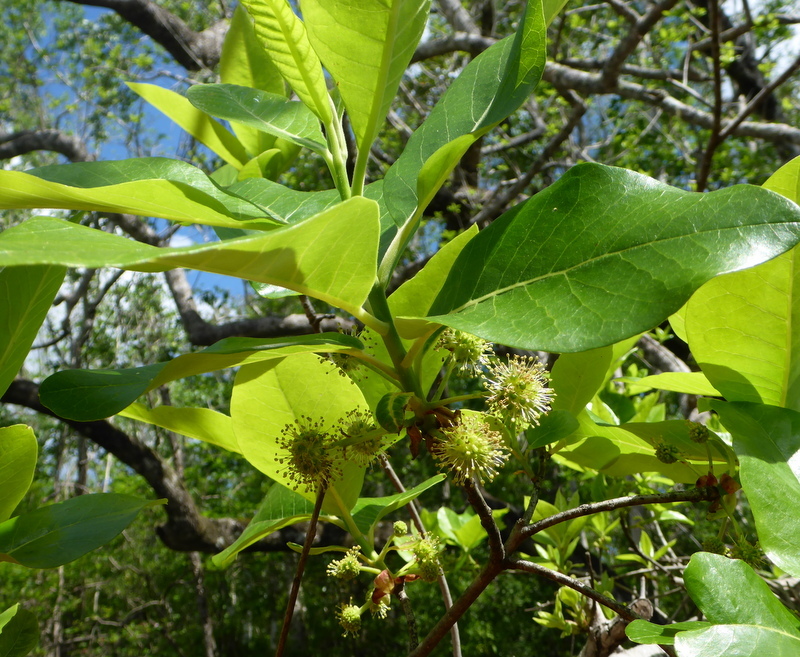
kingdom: Plantae
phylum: Tracheophyta
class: Magnoliopsida
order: Cornales
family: Nyssaceae
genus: Nyssa
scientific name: Nyssa ogeche
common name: Ogeechee tupelo
